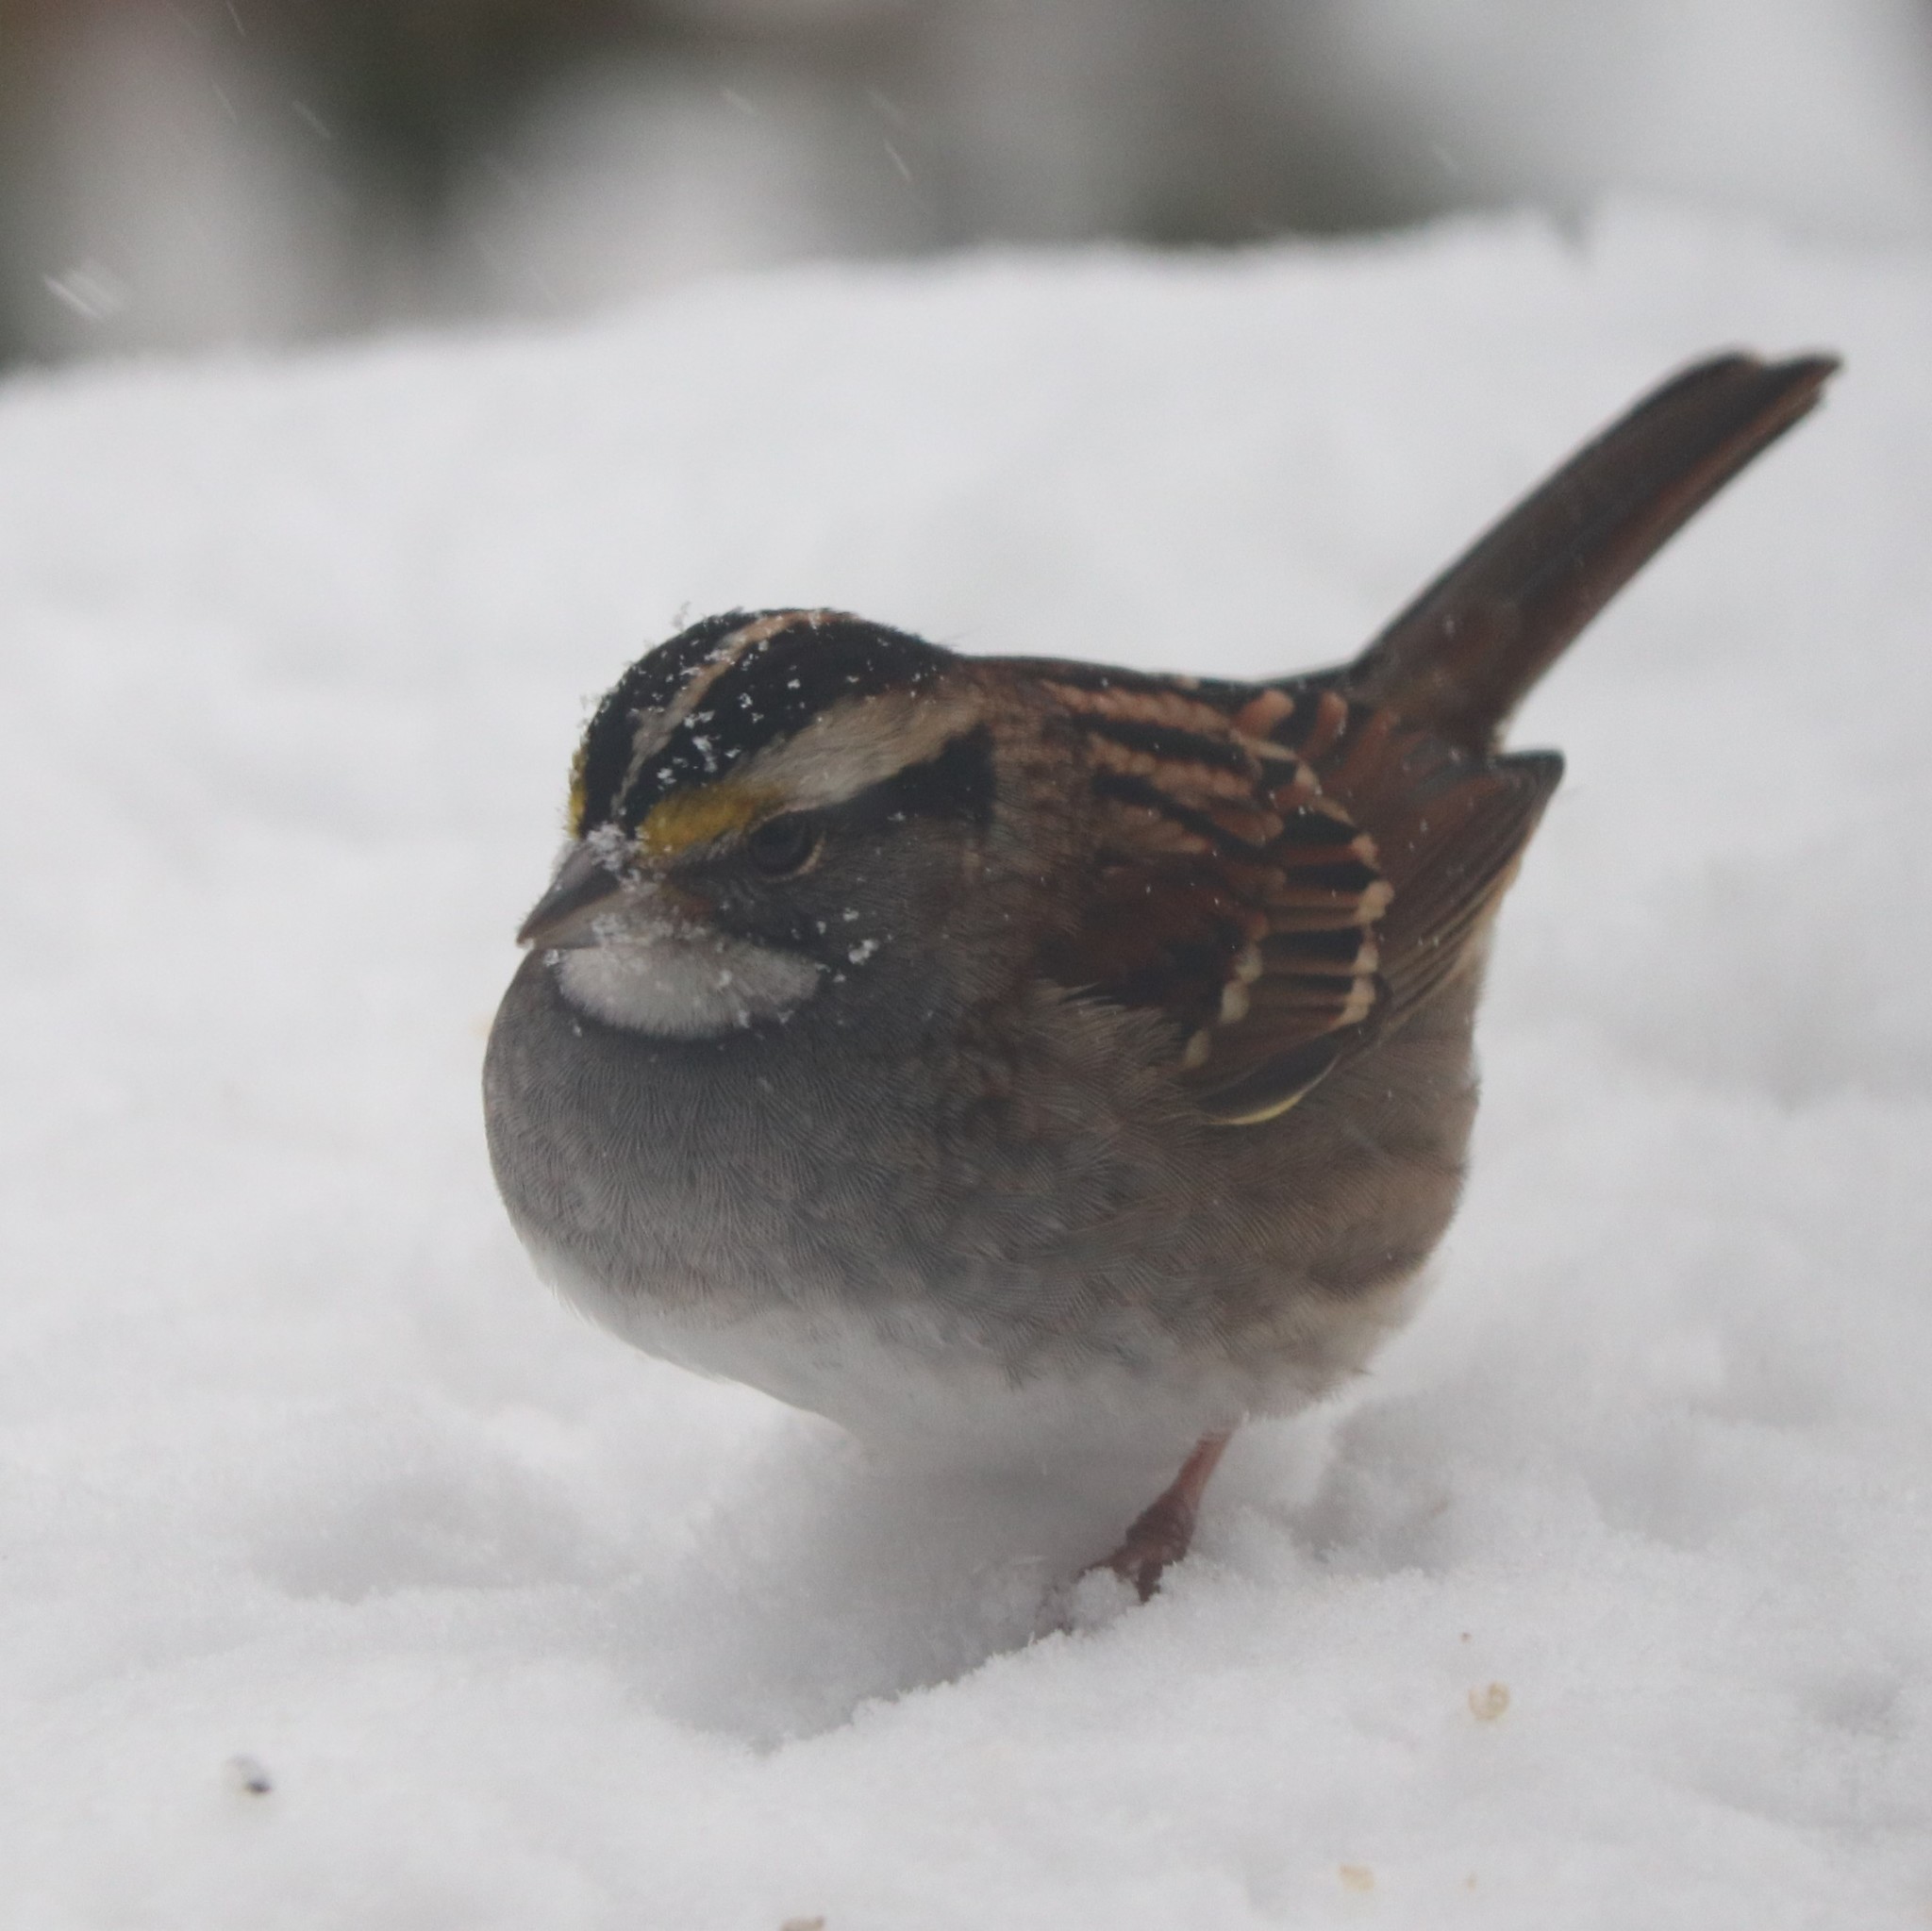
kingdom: Animalia
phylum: Chordata
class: Aves
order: Passeriformes
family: Passerellidae
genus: Zonotrichia
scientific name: Zonotrichia albicollis
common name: White-throated sparrow
